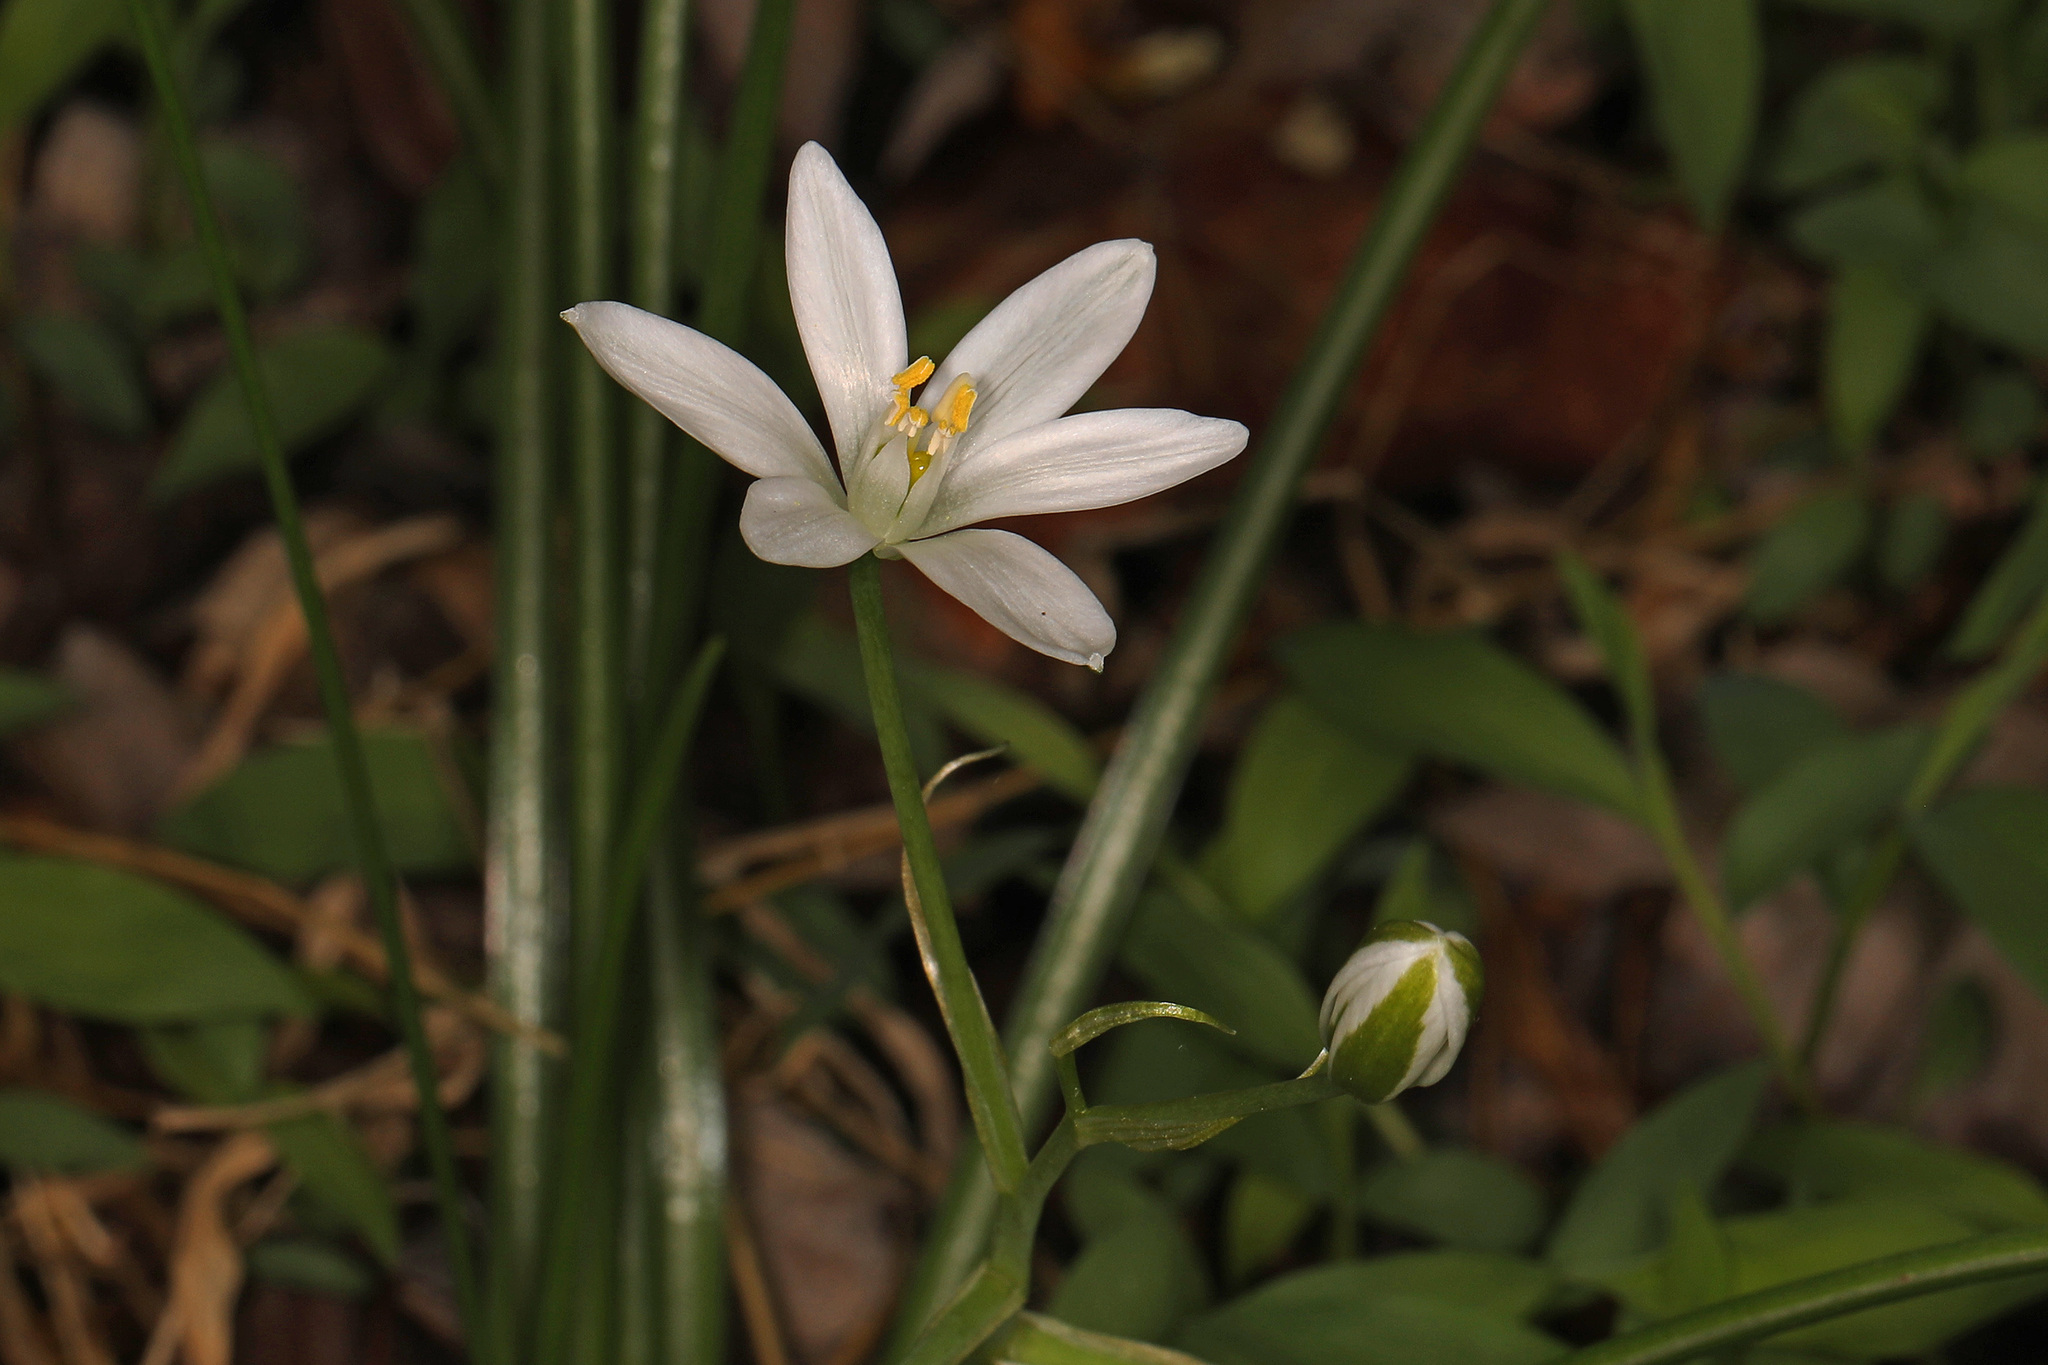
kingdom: Plantae
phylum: Tracheophyta
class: Liliopsida
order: Asparagales
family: Asparagaceae
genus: Ornithogalum
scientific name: Ornithogalum umbellatum
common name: Garden star-of-bethlehem
